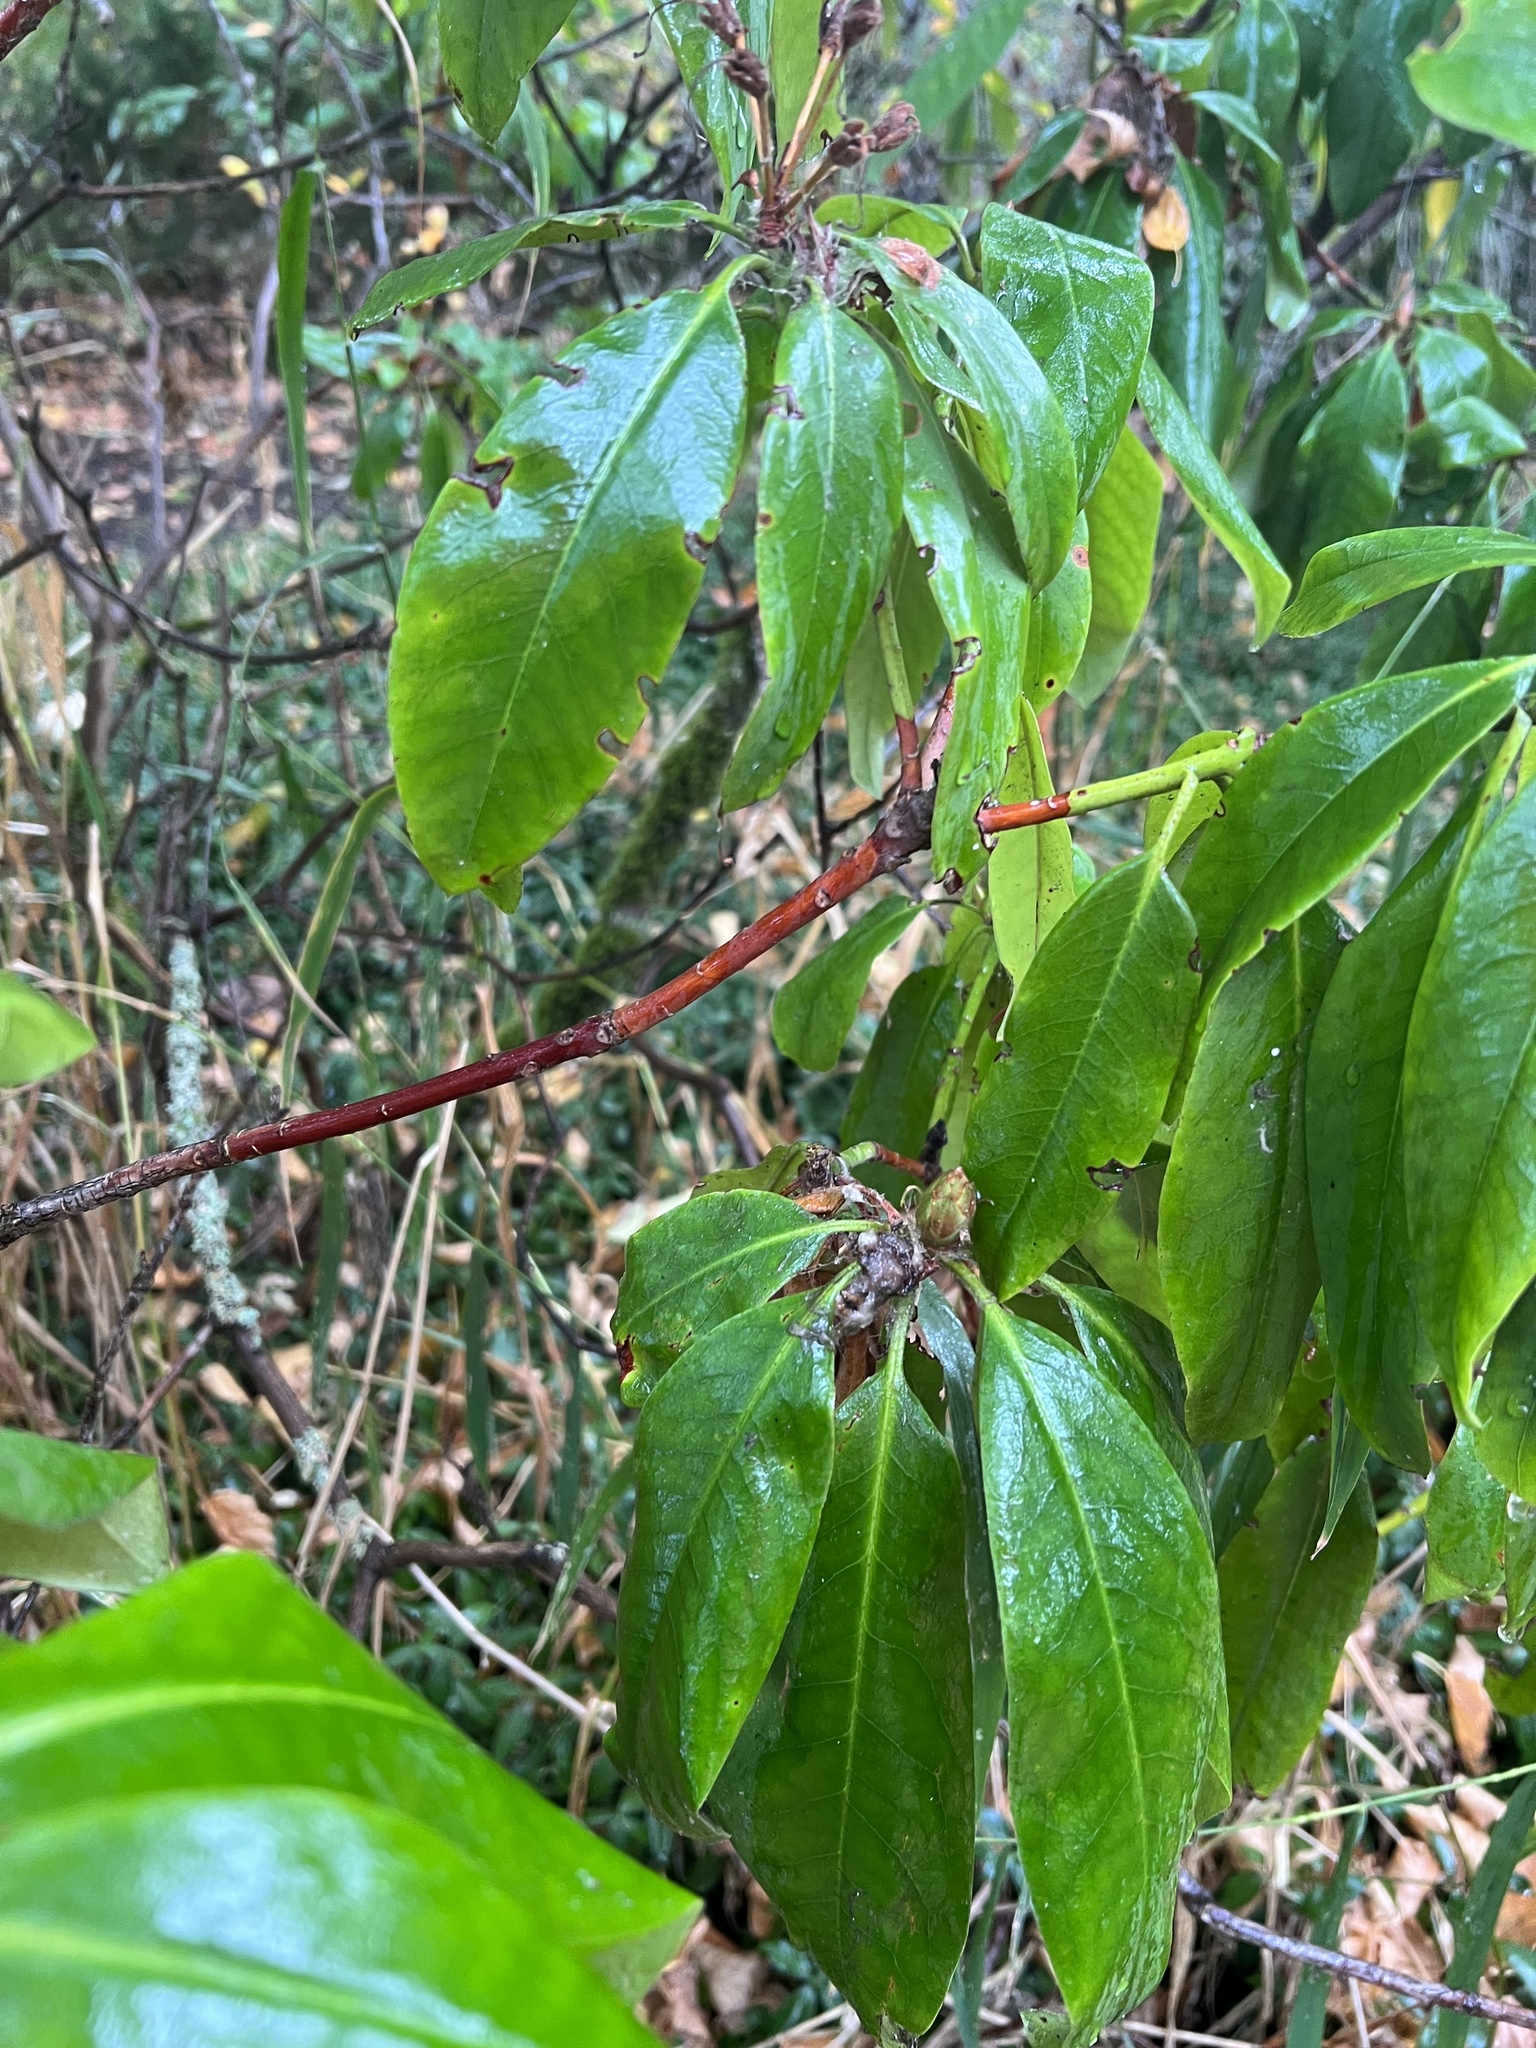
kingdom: Plantae
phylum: Tracheophyta
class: Magnoliopsida
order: Ericales
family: Ericaceae
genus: Rhododendron
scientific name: Rhododendron macrophyllum
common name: California rose bay
